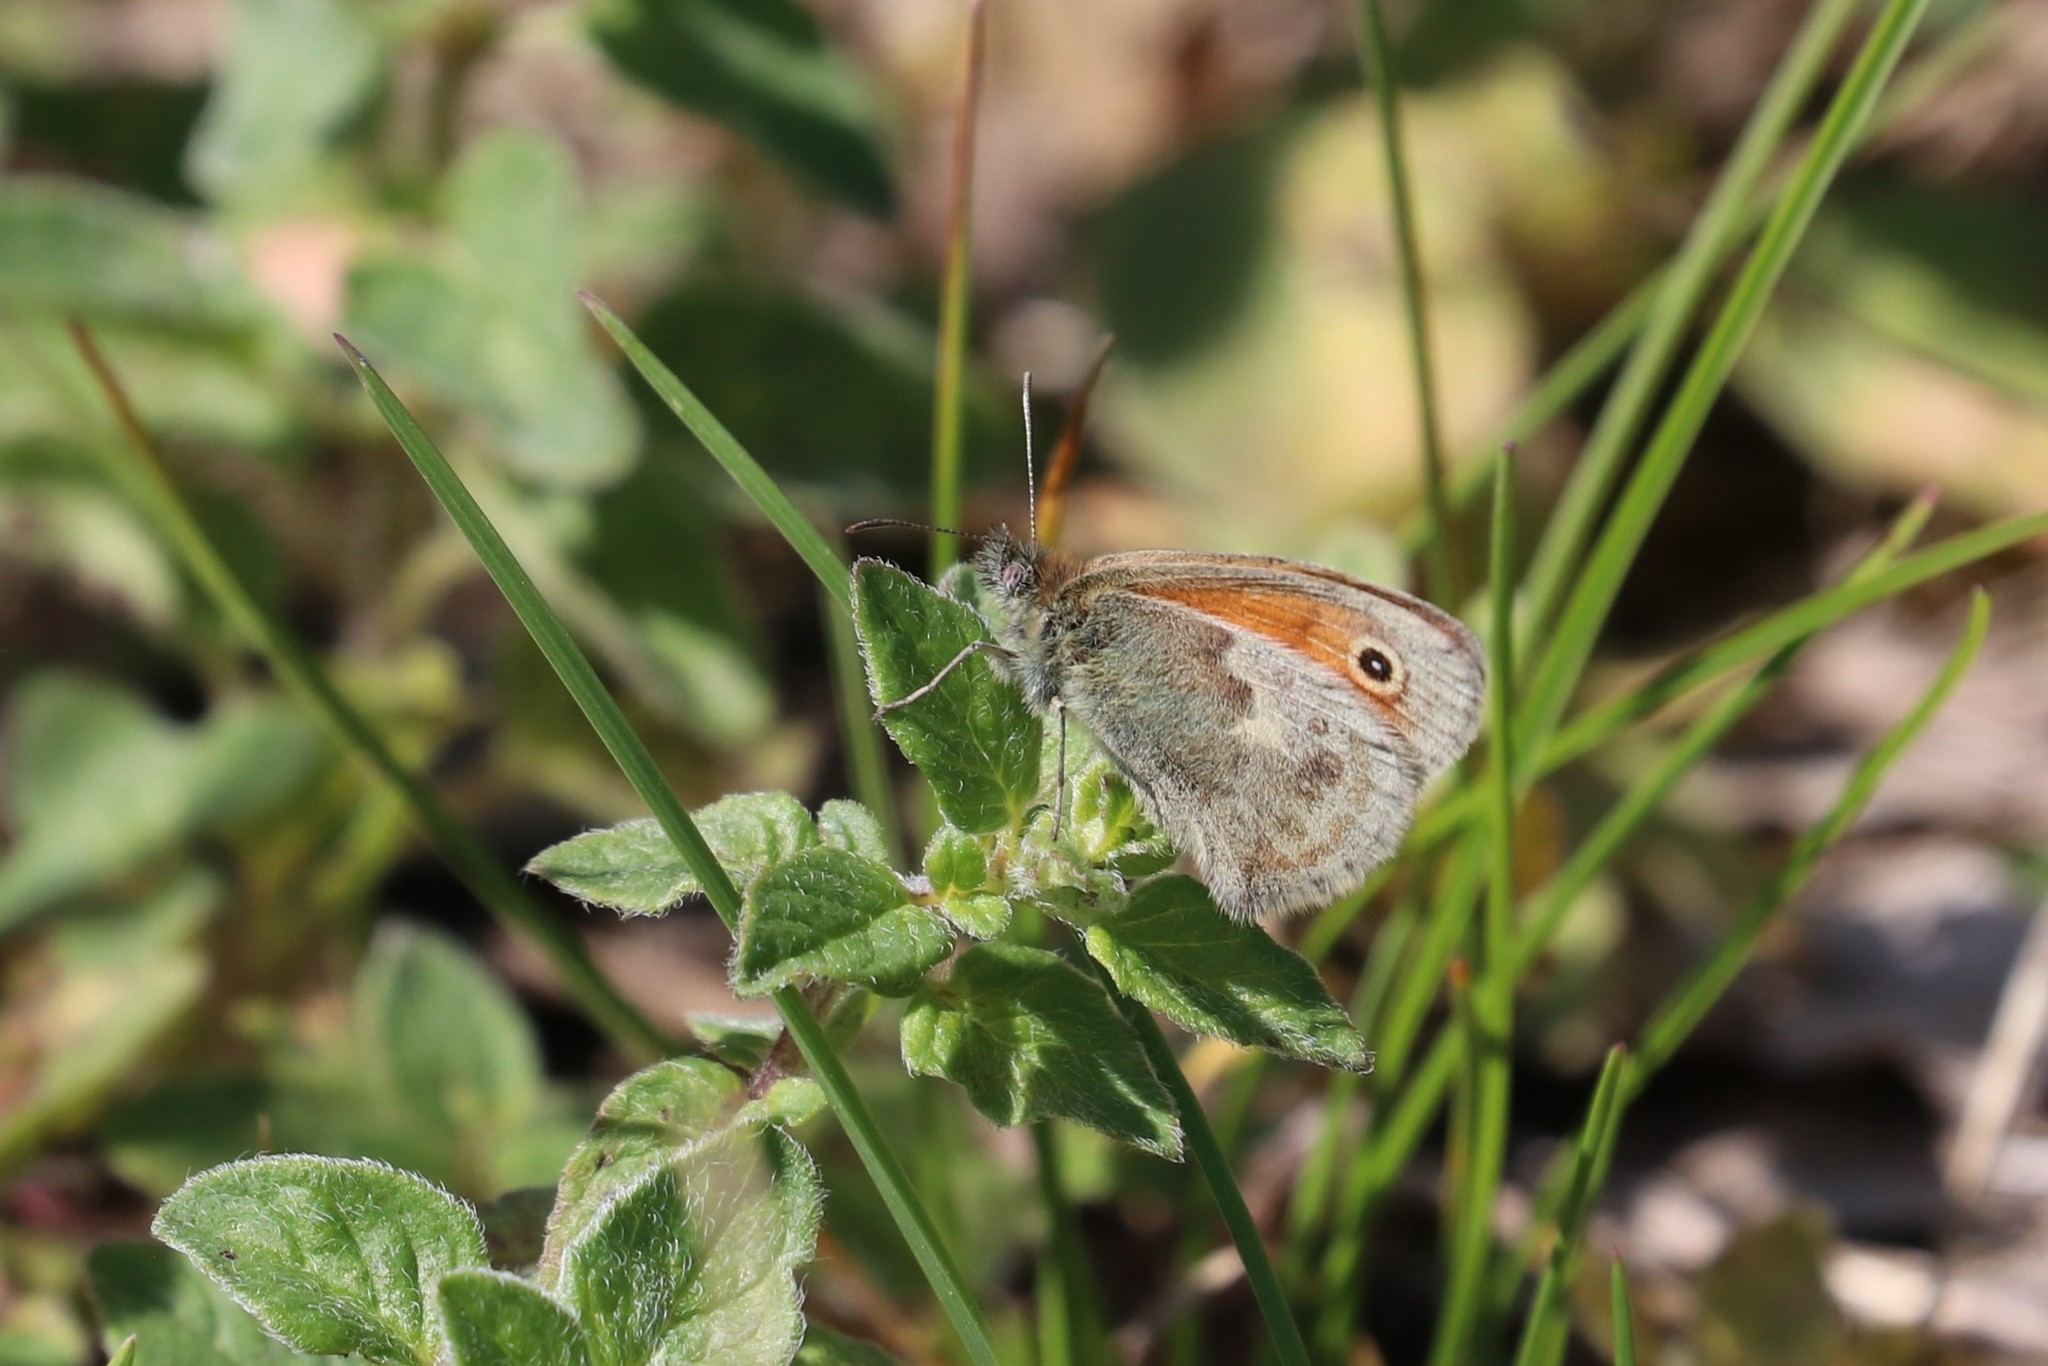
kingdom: Animalia
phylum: Arthropoda
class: Insecta
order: Lepidoptera
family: Nymphalidae
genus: Coenonympha
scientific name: Coenonympha pamphilus
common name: Small heath
